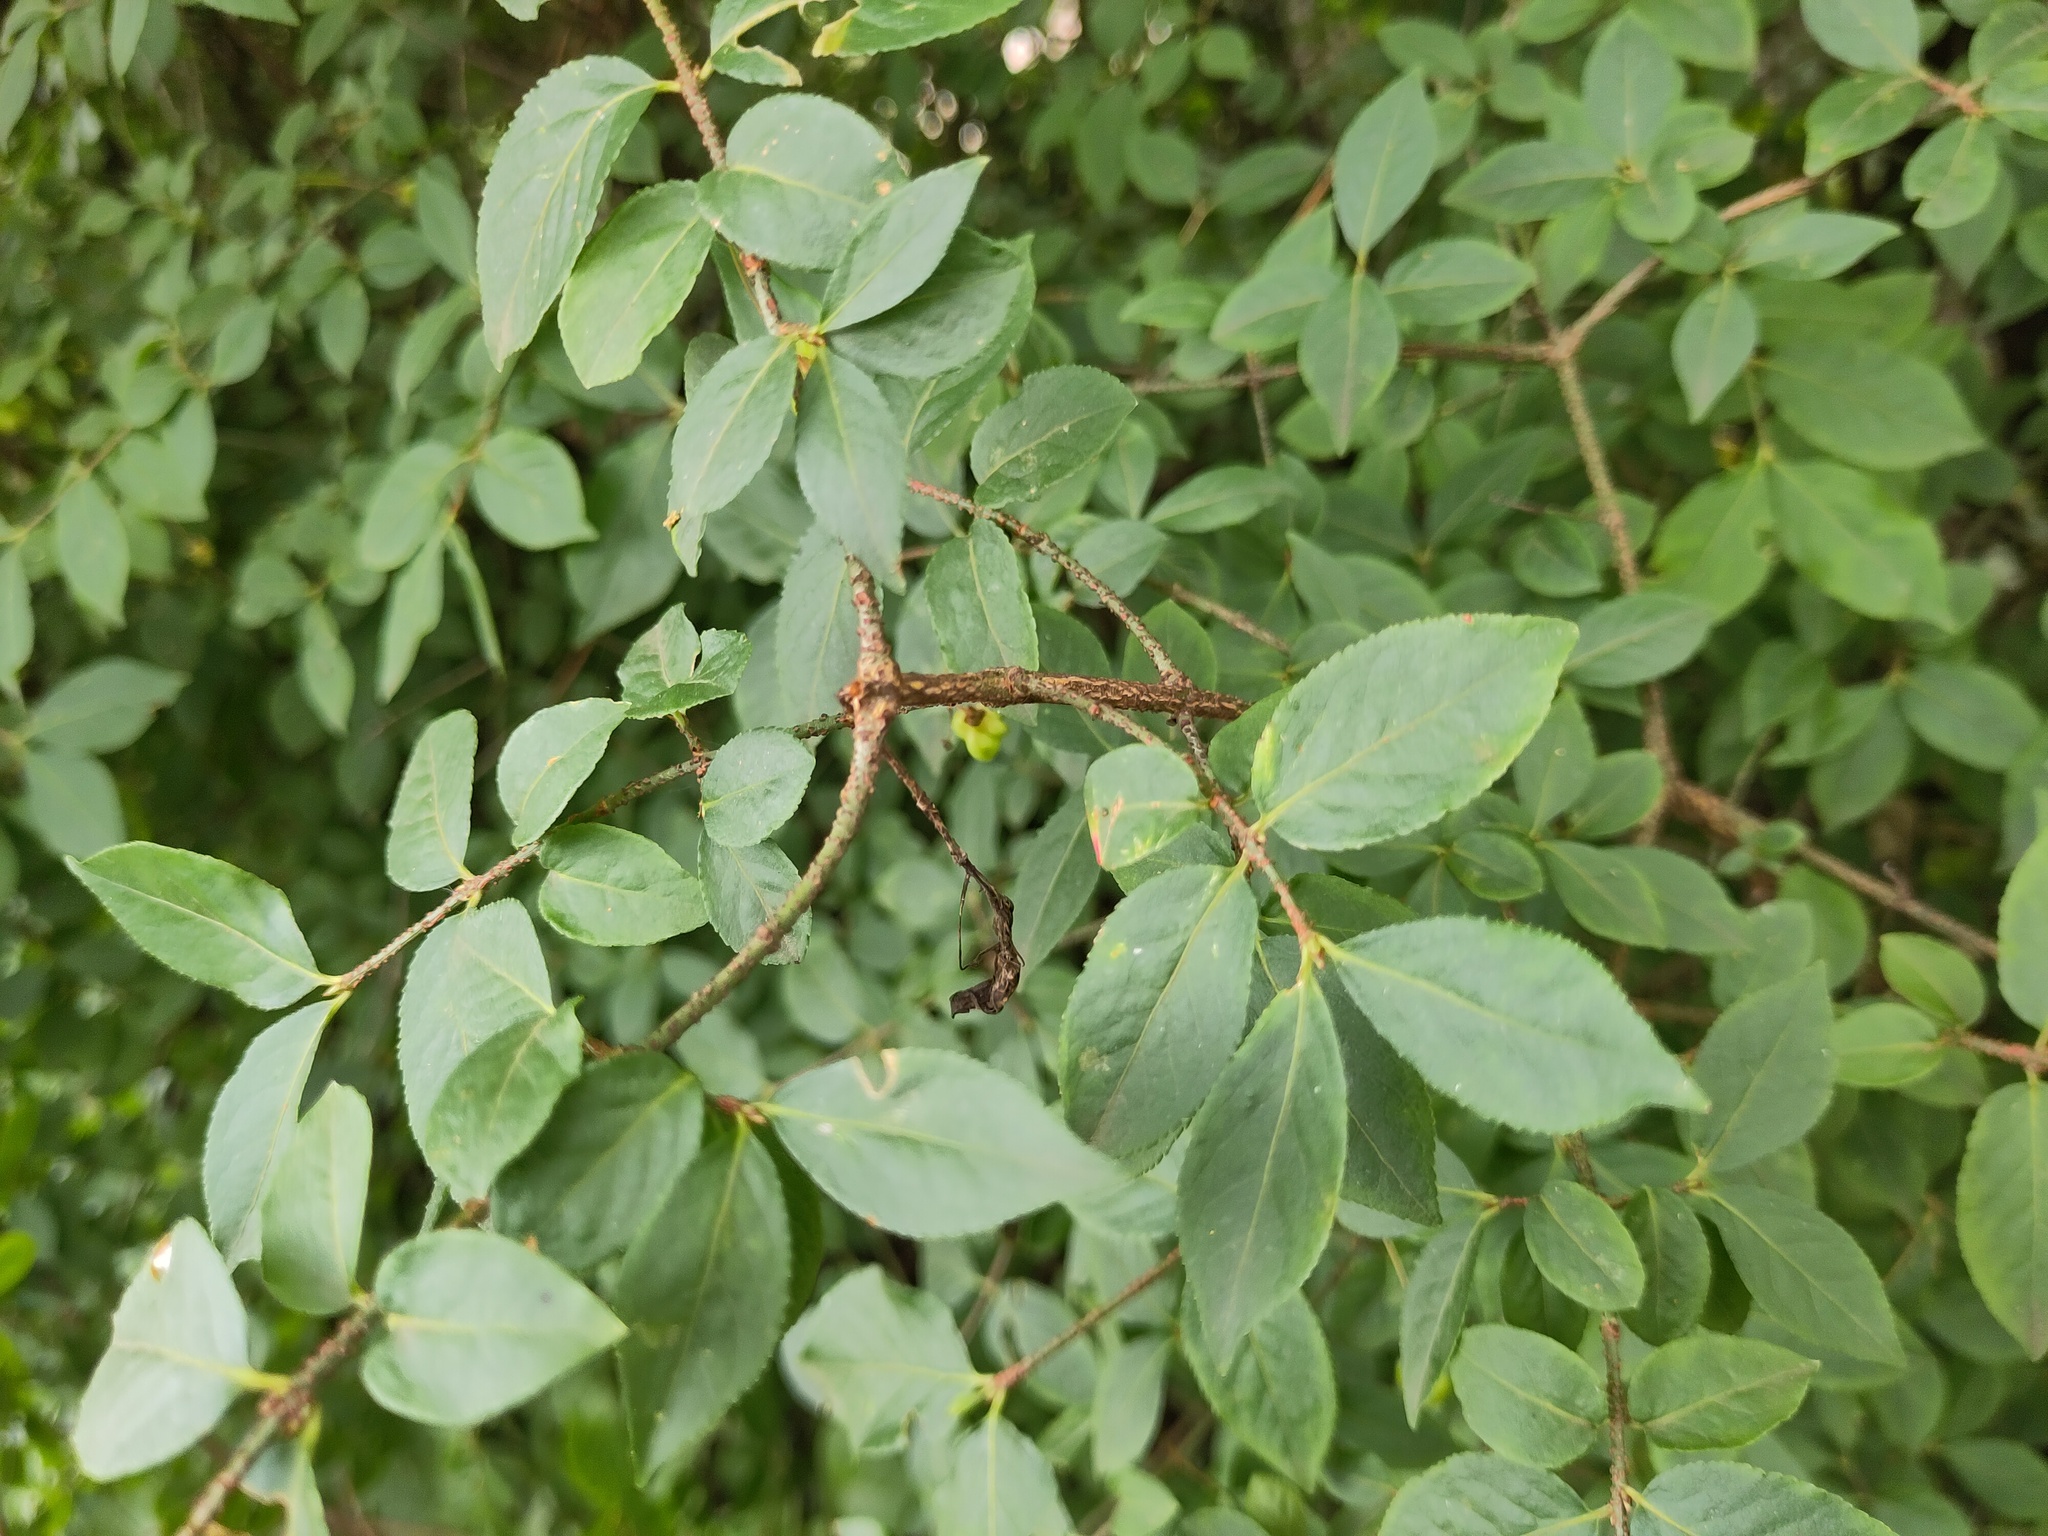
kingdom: Plantae
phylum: Tracheophyta
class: Magnoliopsida
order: Celastrales
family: Celastraceae
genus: Euonymus
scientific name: Euonymus verrucosus
